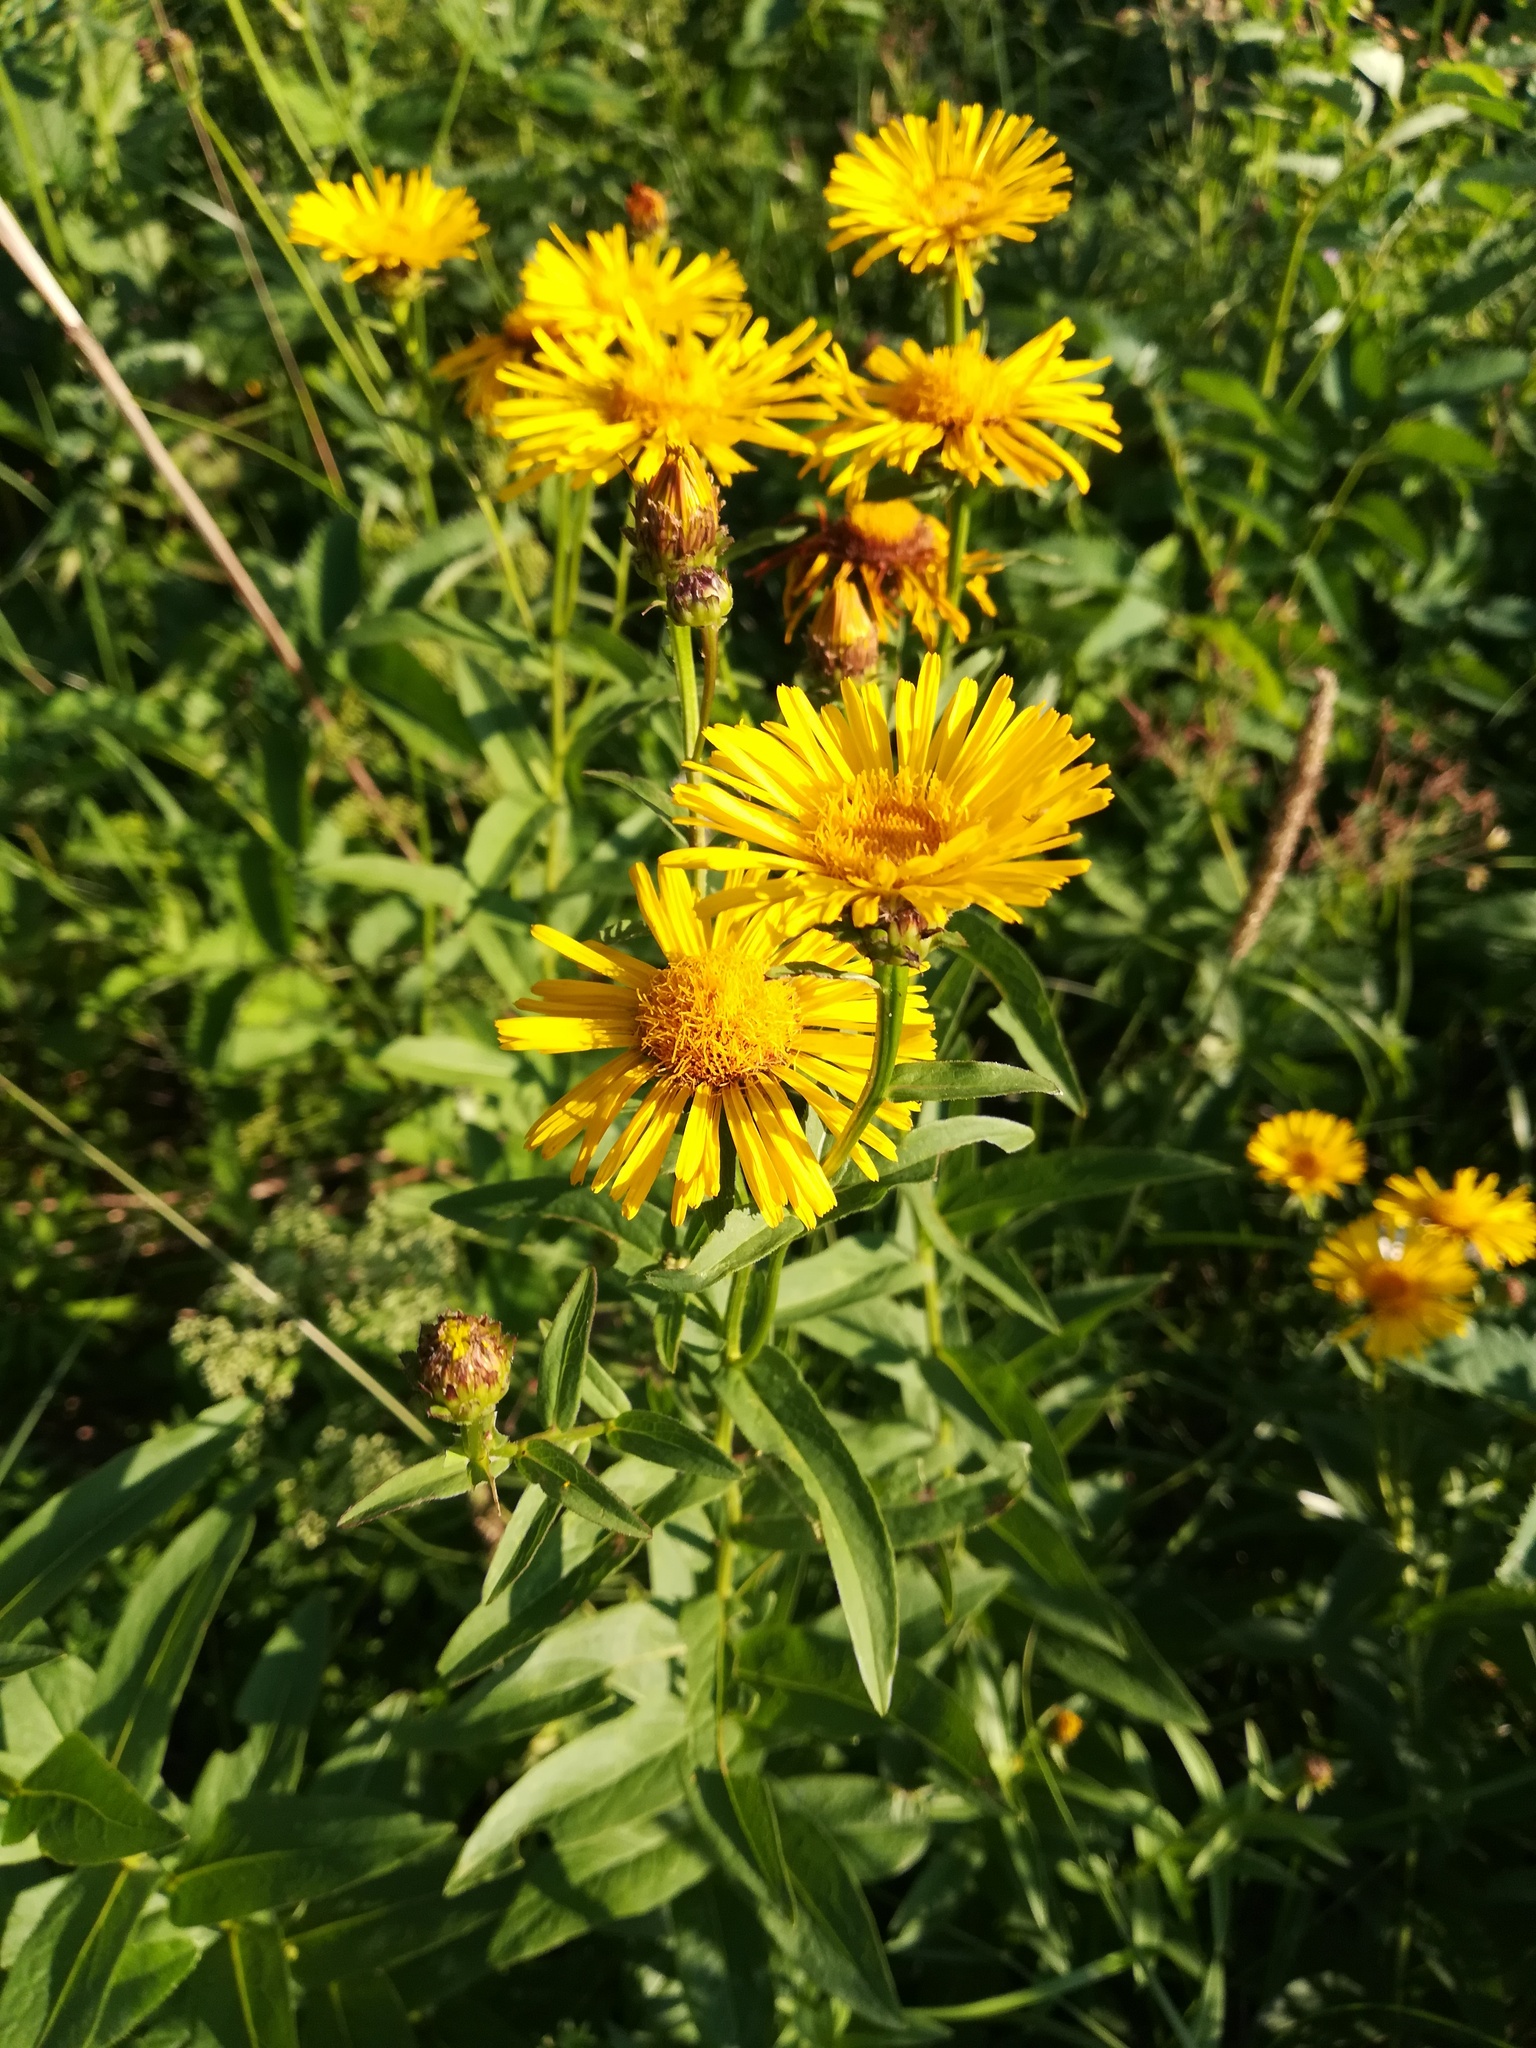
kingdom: Plantae
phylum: Tracheophyta
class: Magnoliopsida
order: Asterales
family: Asteraceae
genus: Pentanema
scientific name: Pentanema salicinum
